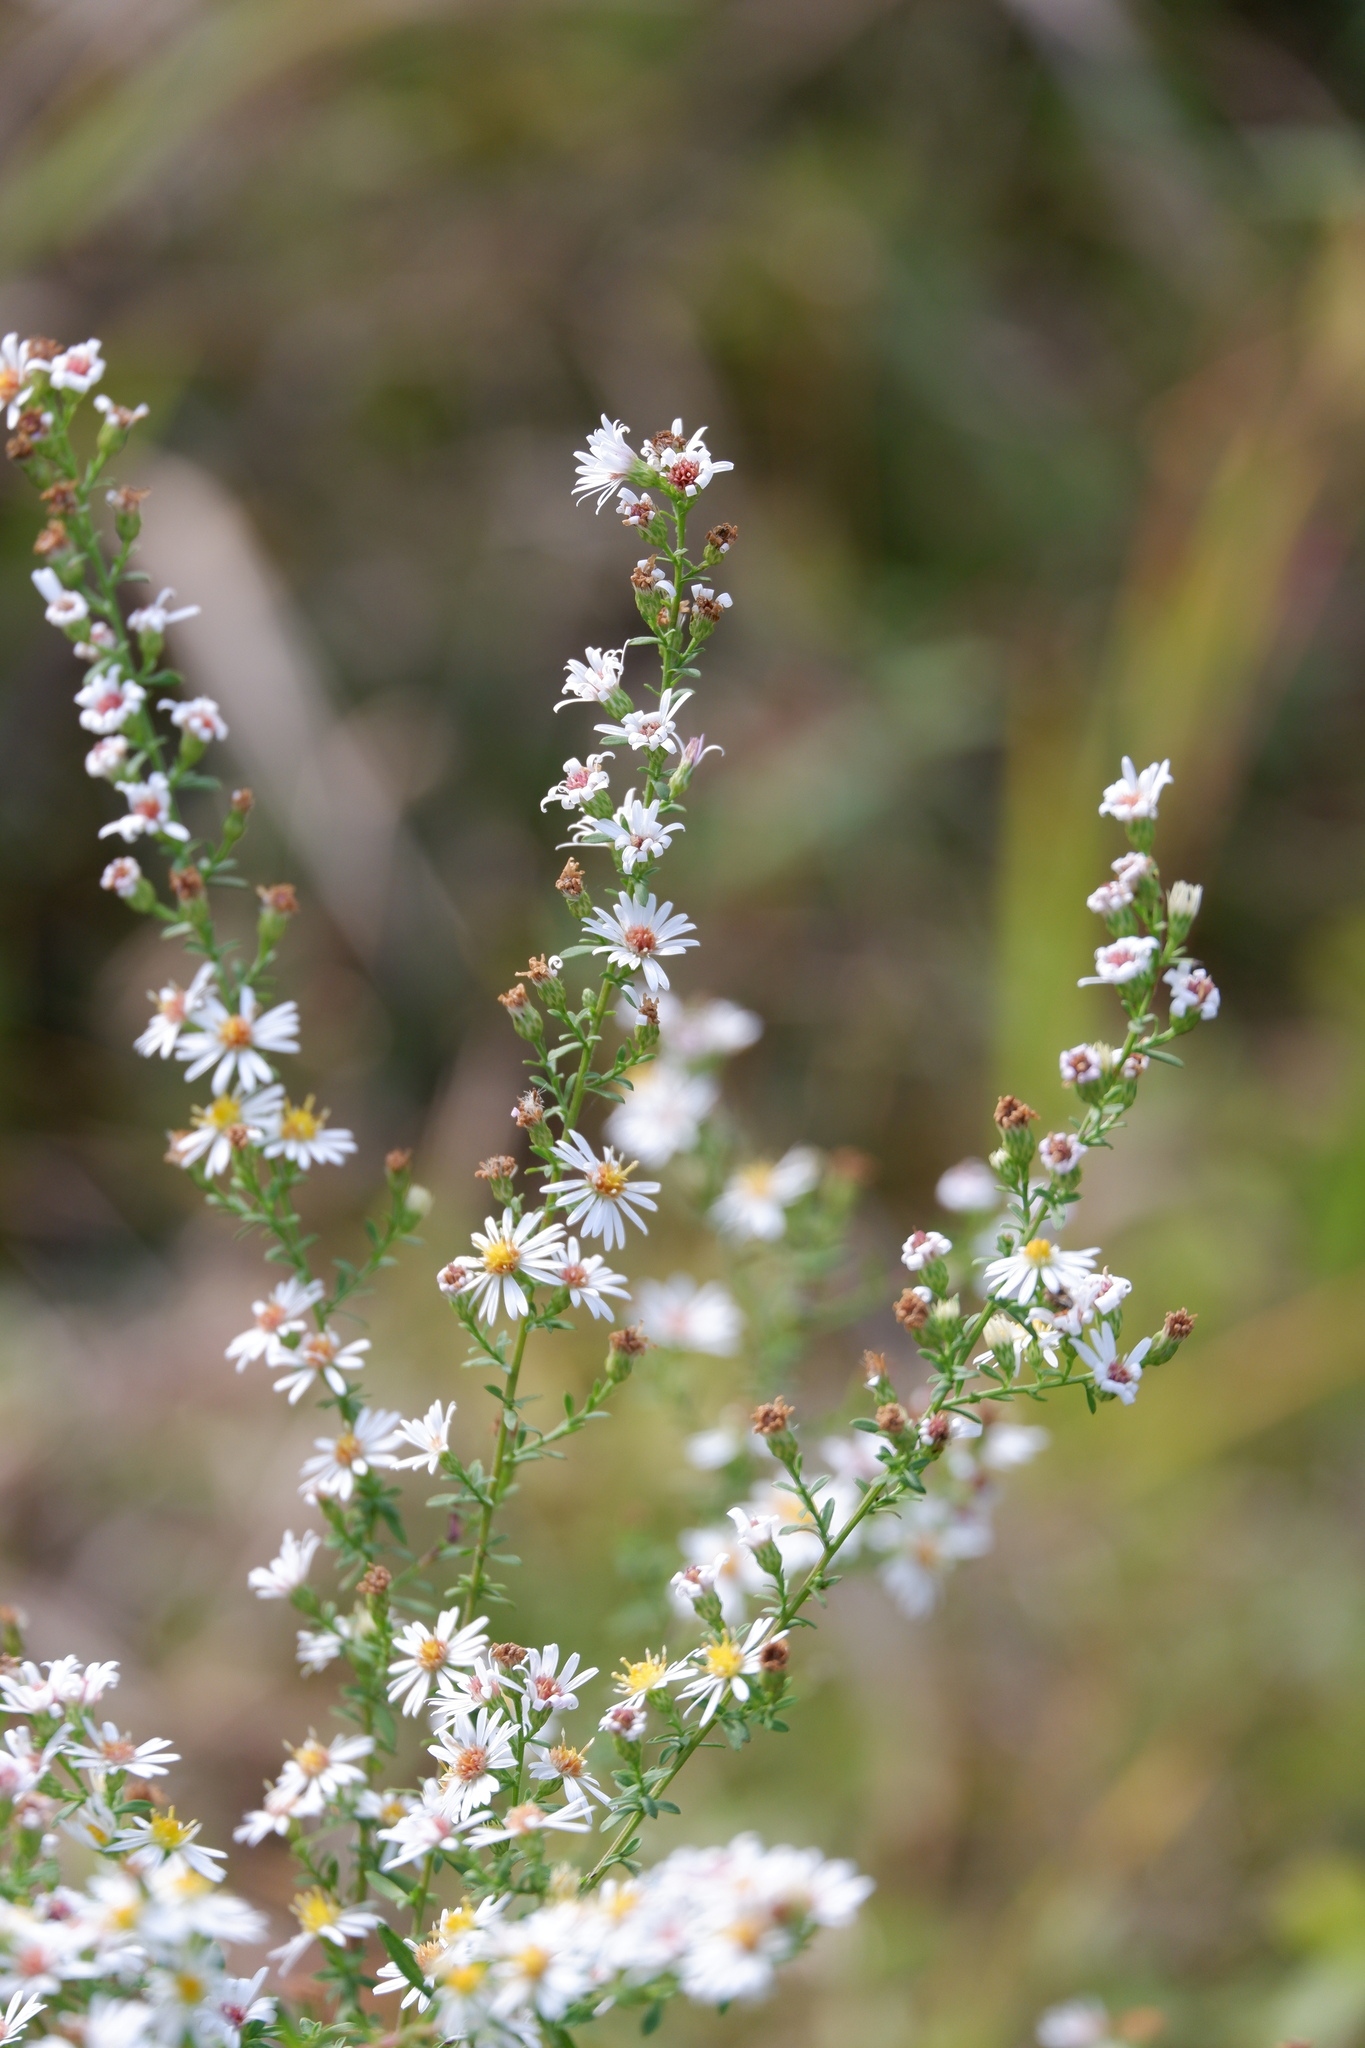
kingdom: Plantae
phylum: Tracheophyta
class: Magnoliopsida
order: Asterales
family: Asteraceae
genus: Symphyotrichum
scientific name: Symphyotrichum racemosum
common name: Small white aster
